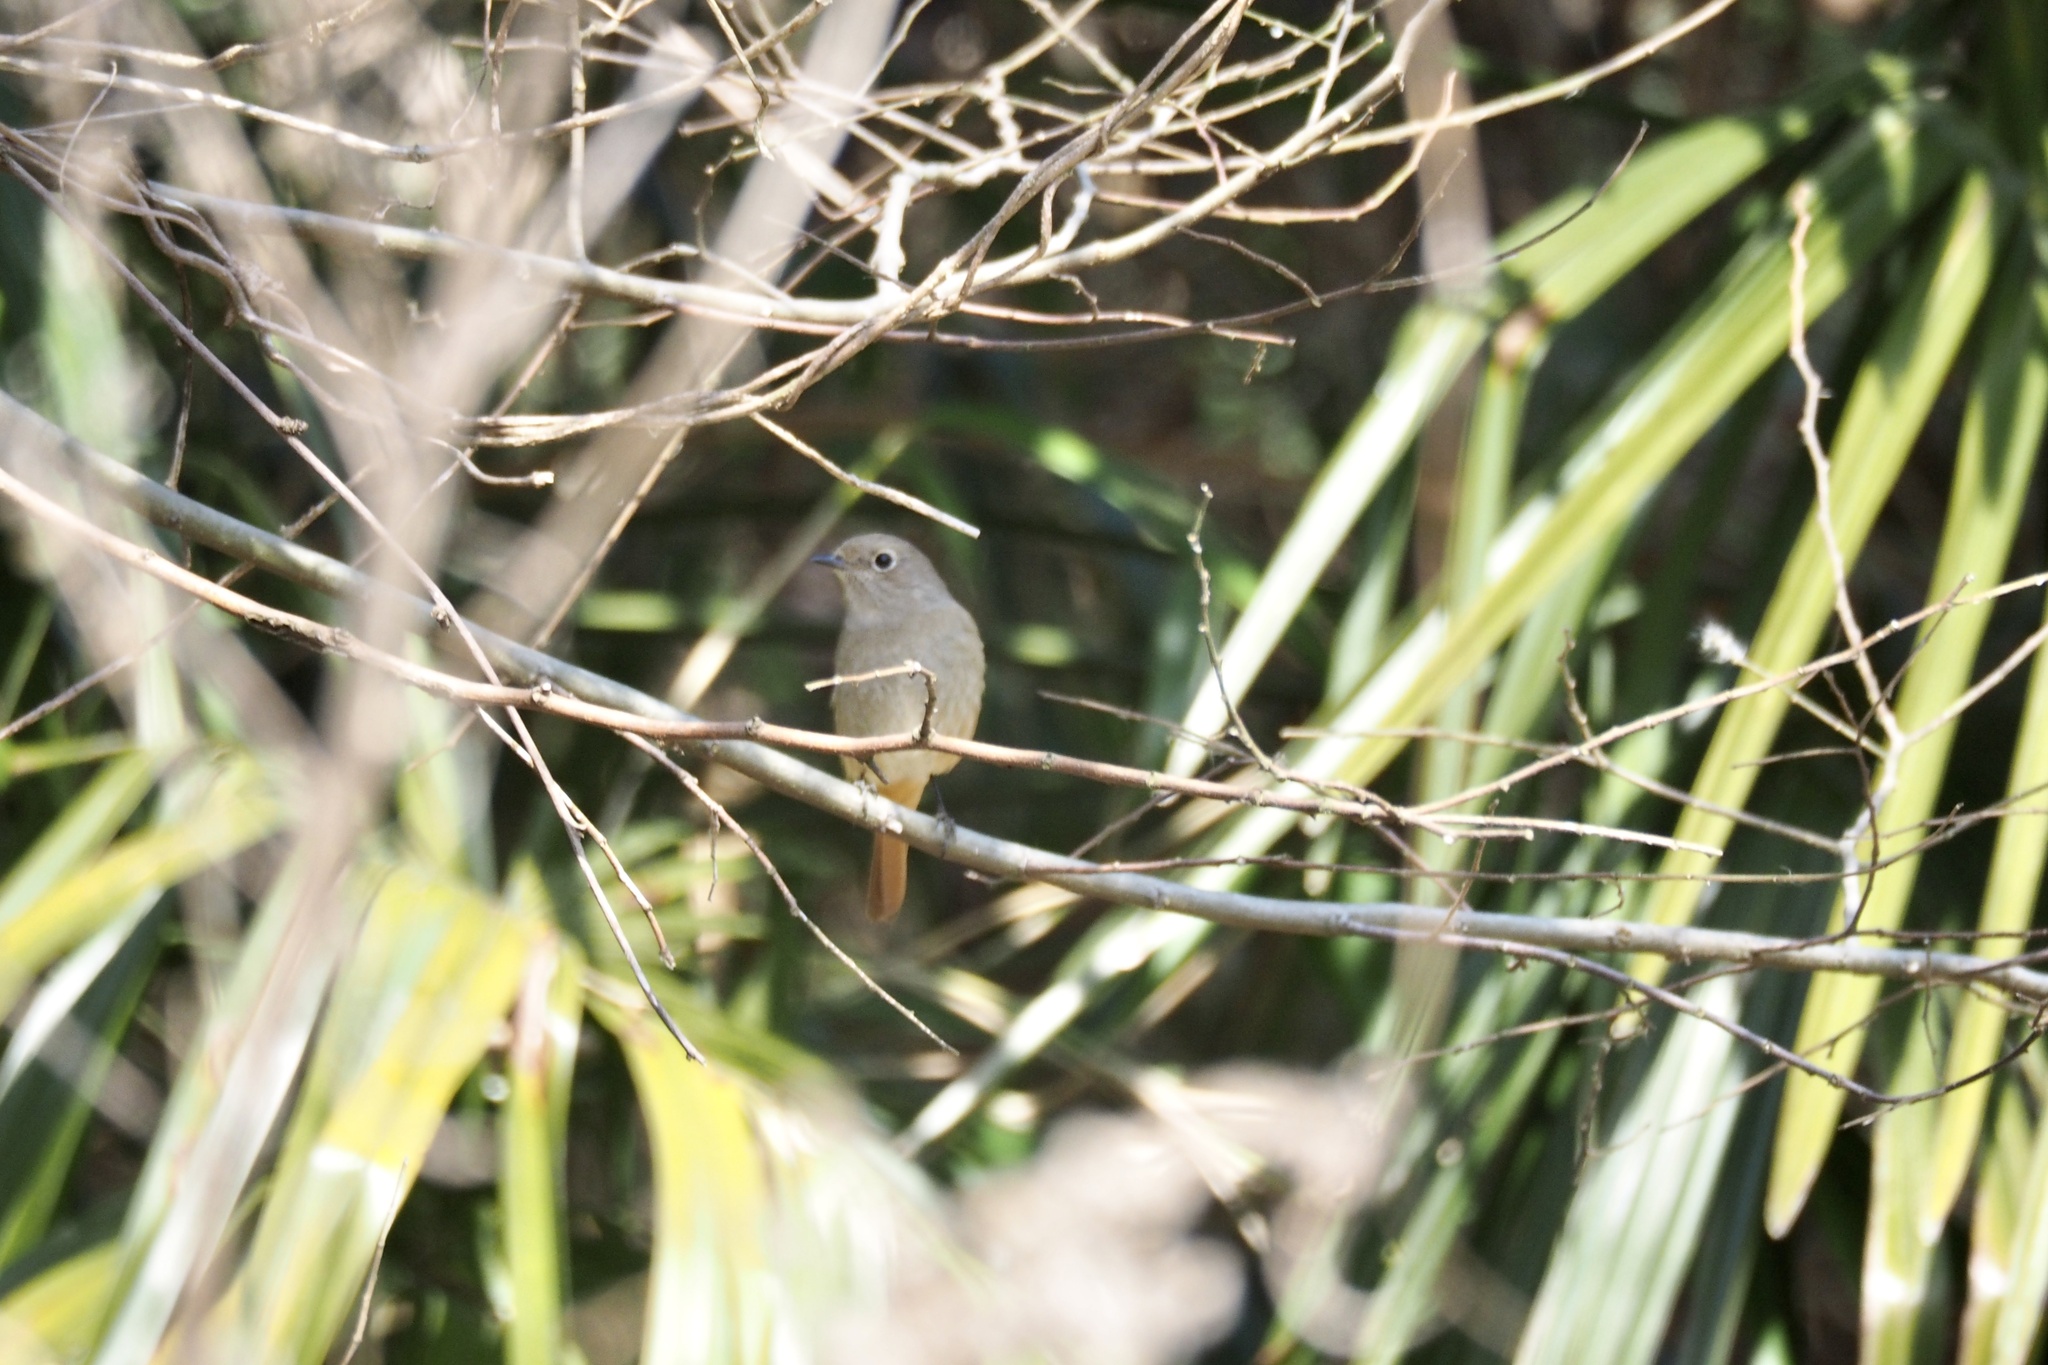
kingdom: Animalia
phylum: Chordata
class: Aves
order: Passeriformes
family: Muscicapidae
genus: Phoenicurus
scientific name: Phoenicurus auroreus
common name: Daurian redstart
